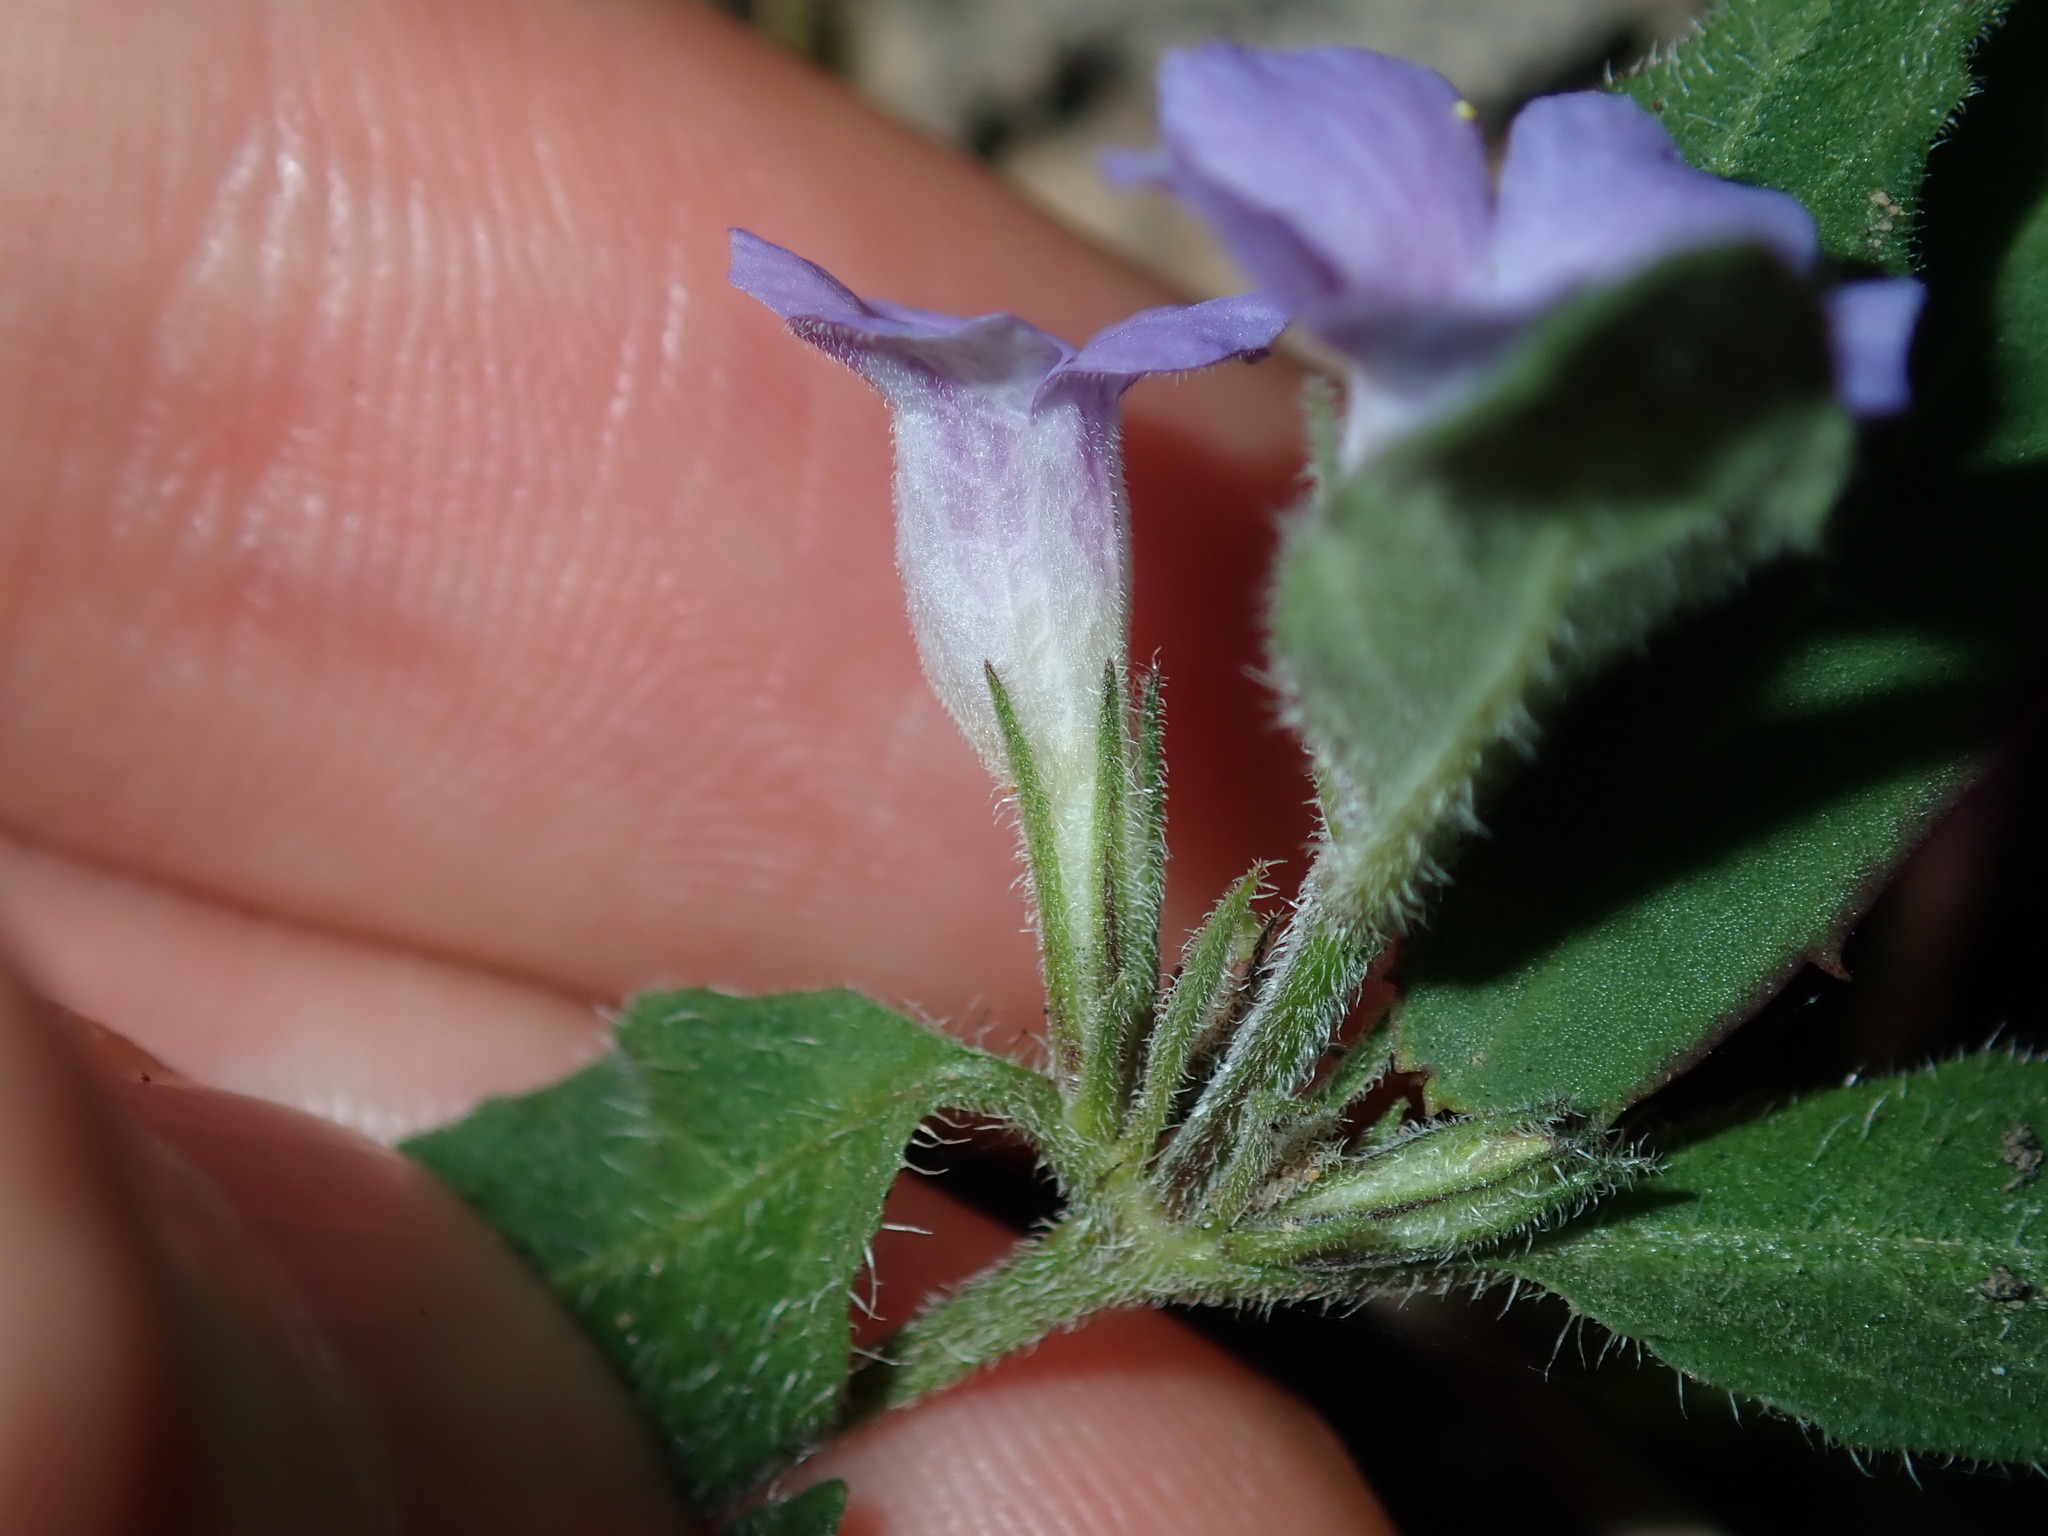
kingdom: Plantae
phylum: Tracheophyta
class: Magnoliopsida
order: Lamiales
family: Acanthaceae
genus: Brunoniella
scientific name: Brunoniella australis
